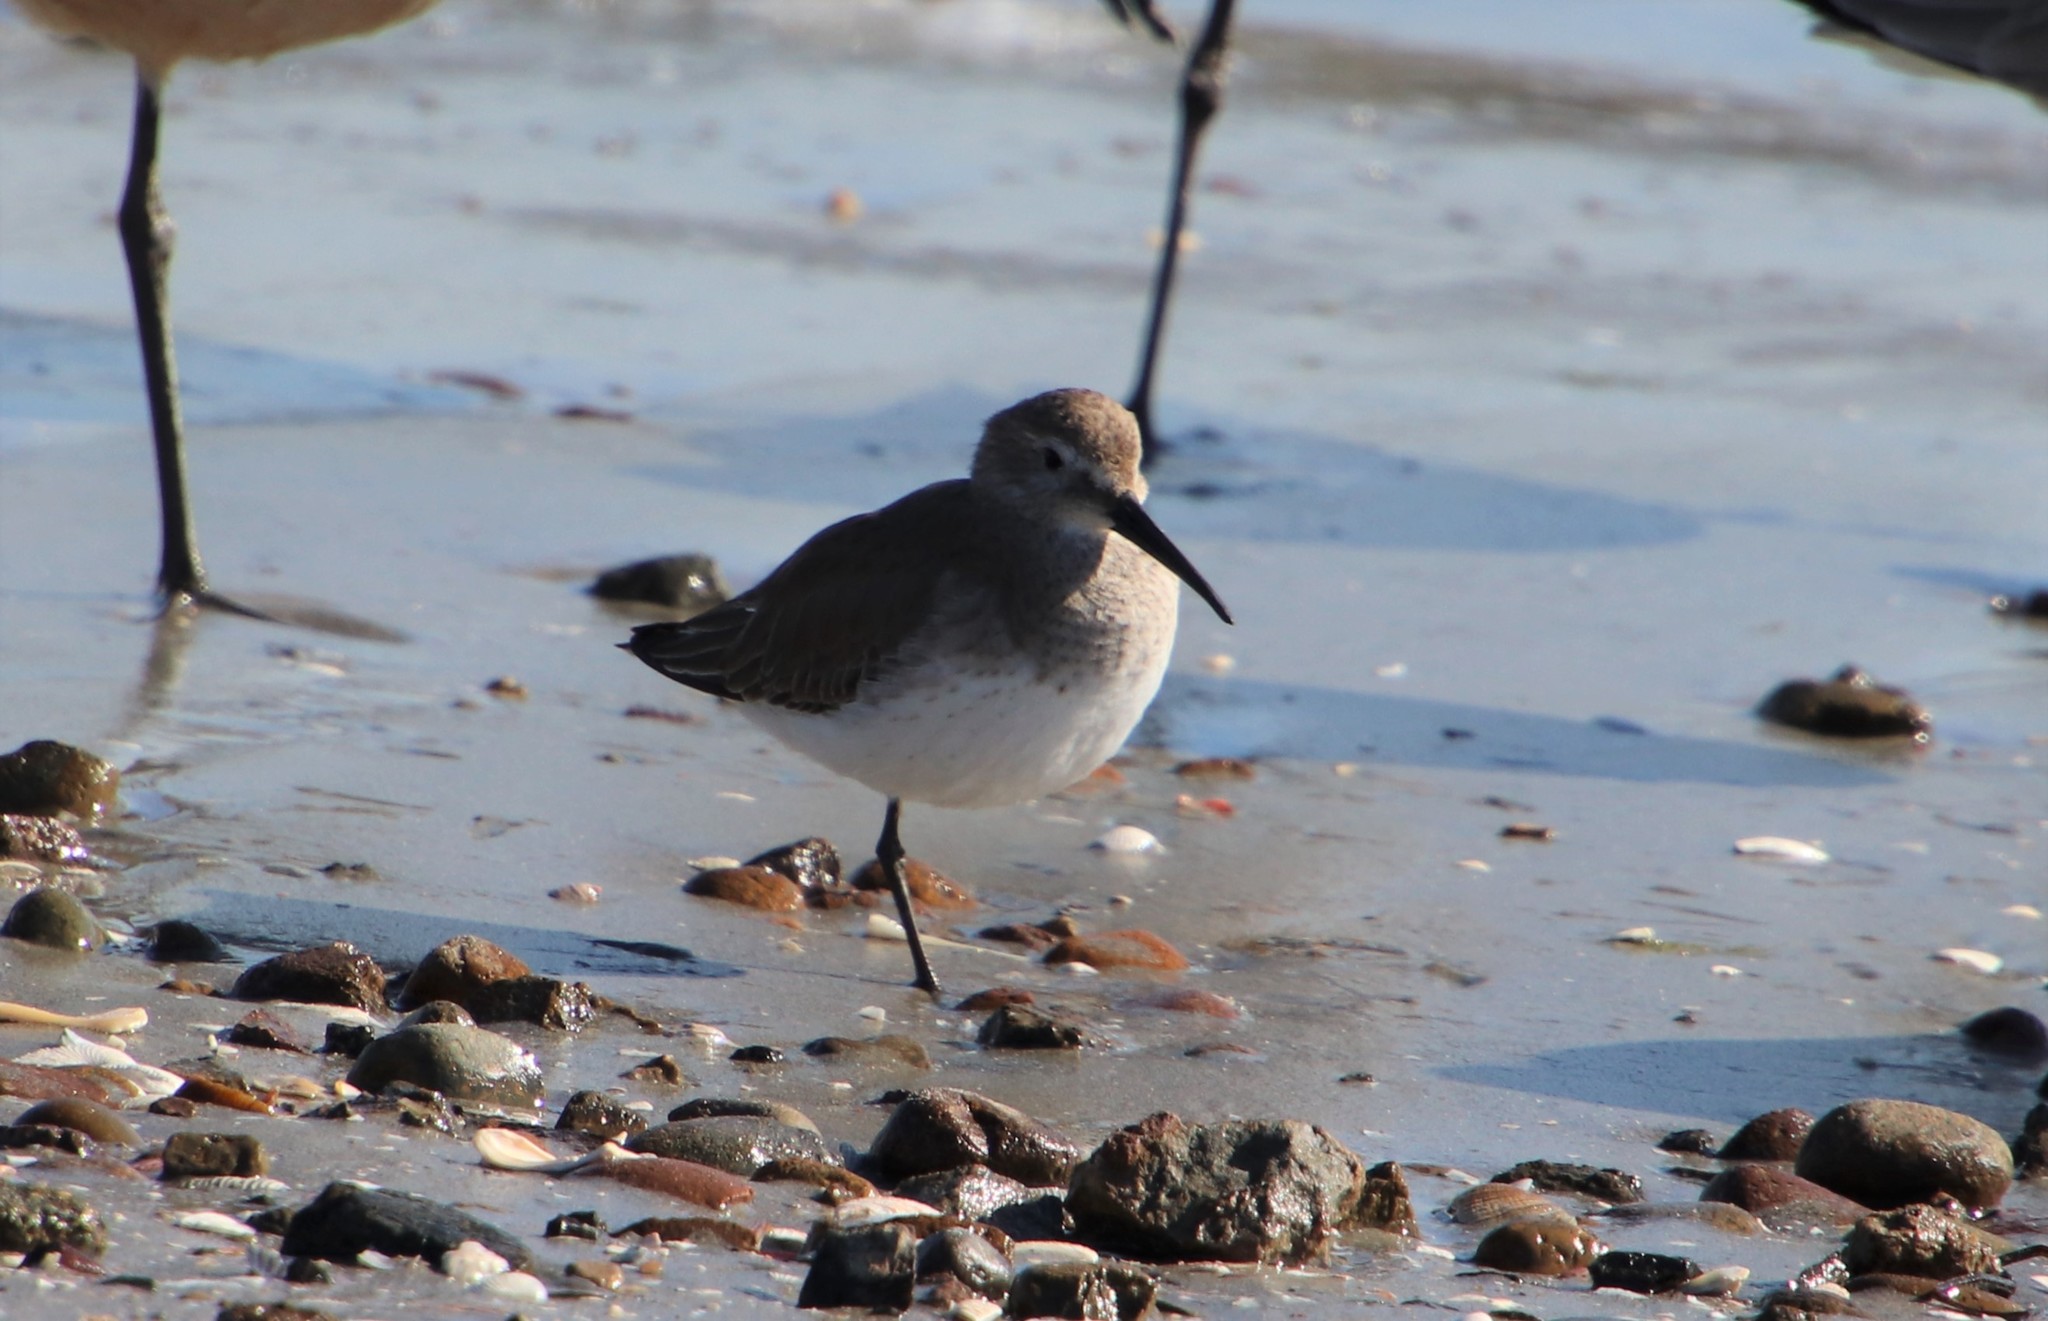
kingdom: Animalia
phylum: Chordata
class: Aves
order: Charadriiformes
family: Scolopacidae
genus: Calidris
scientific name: Calidris alpina
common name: Dunlin
